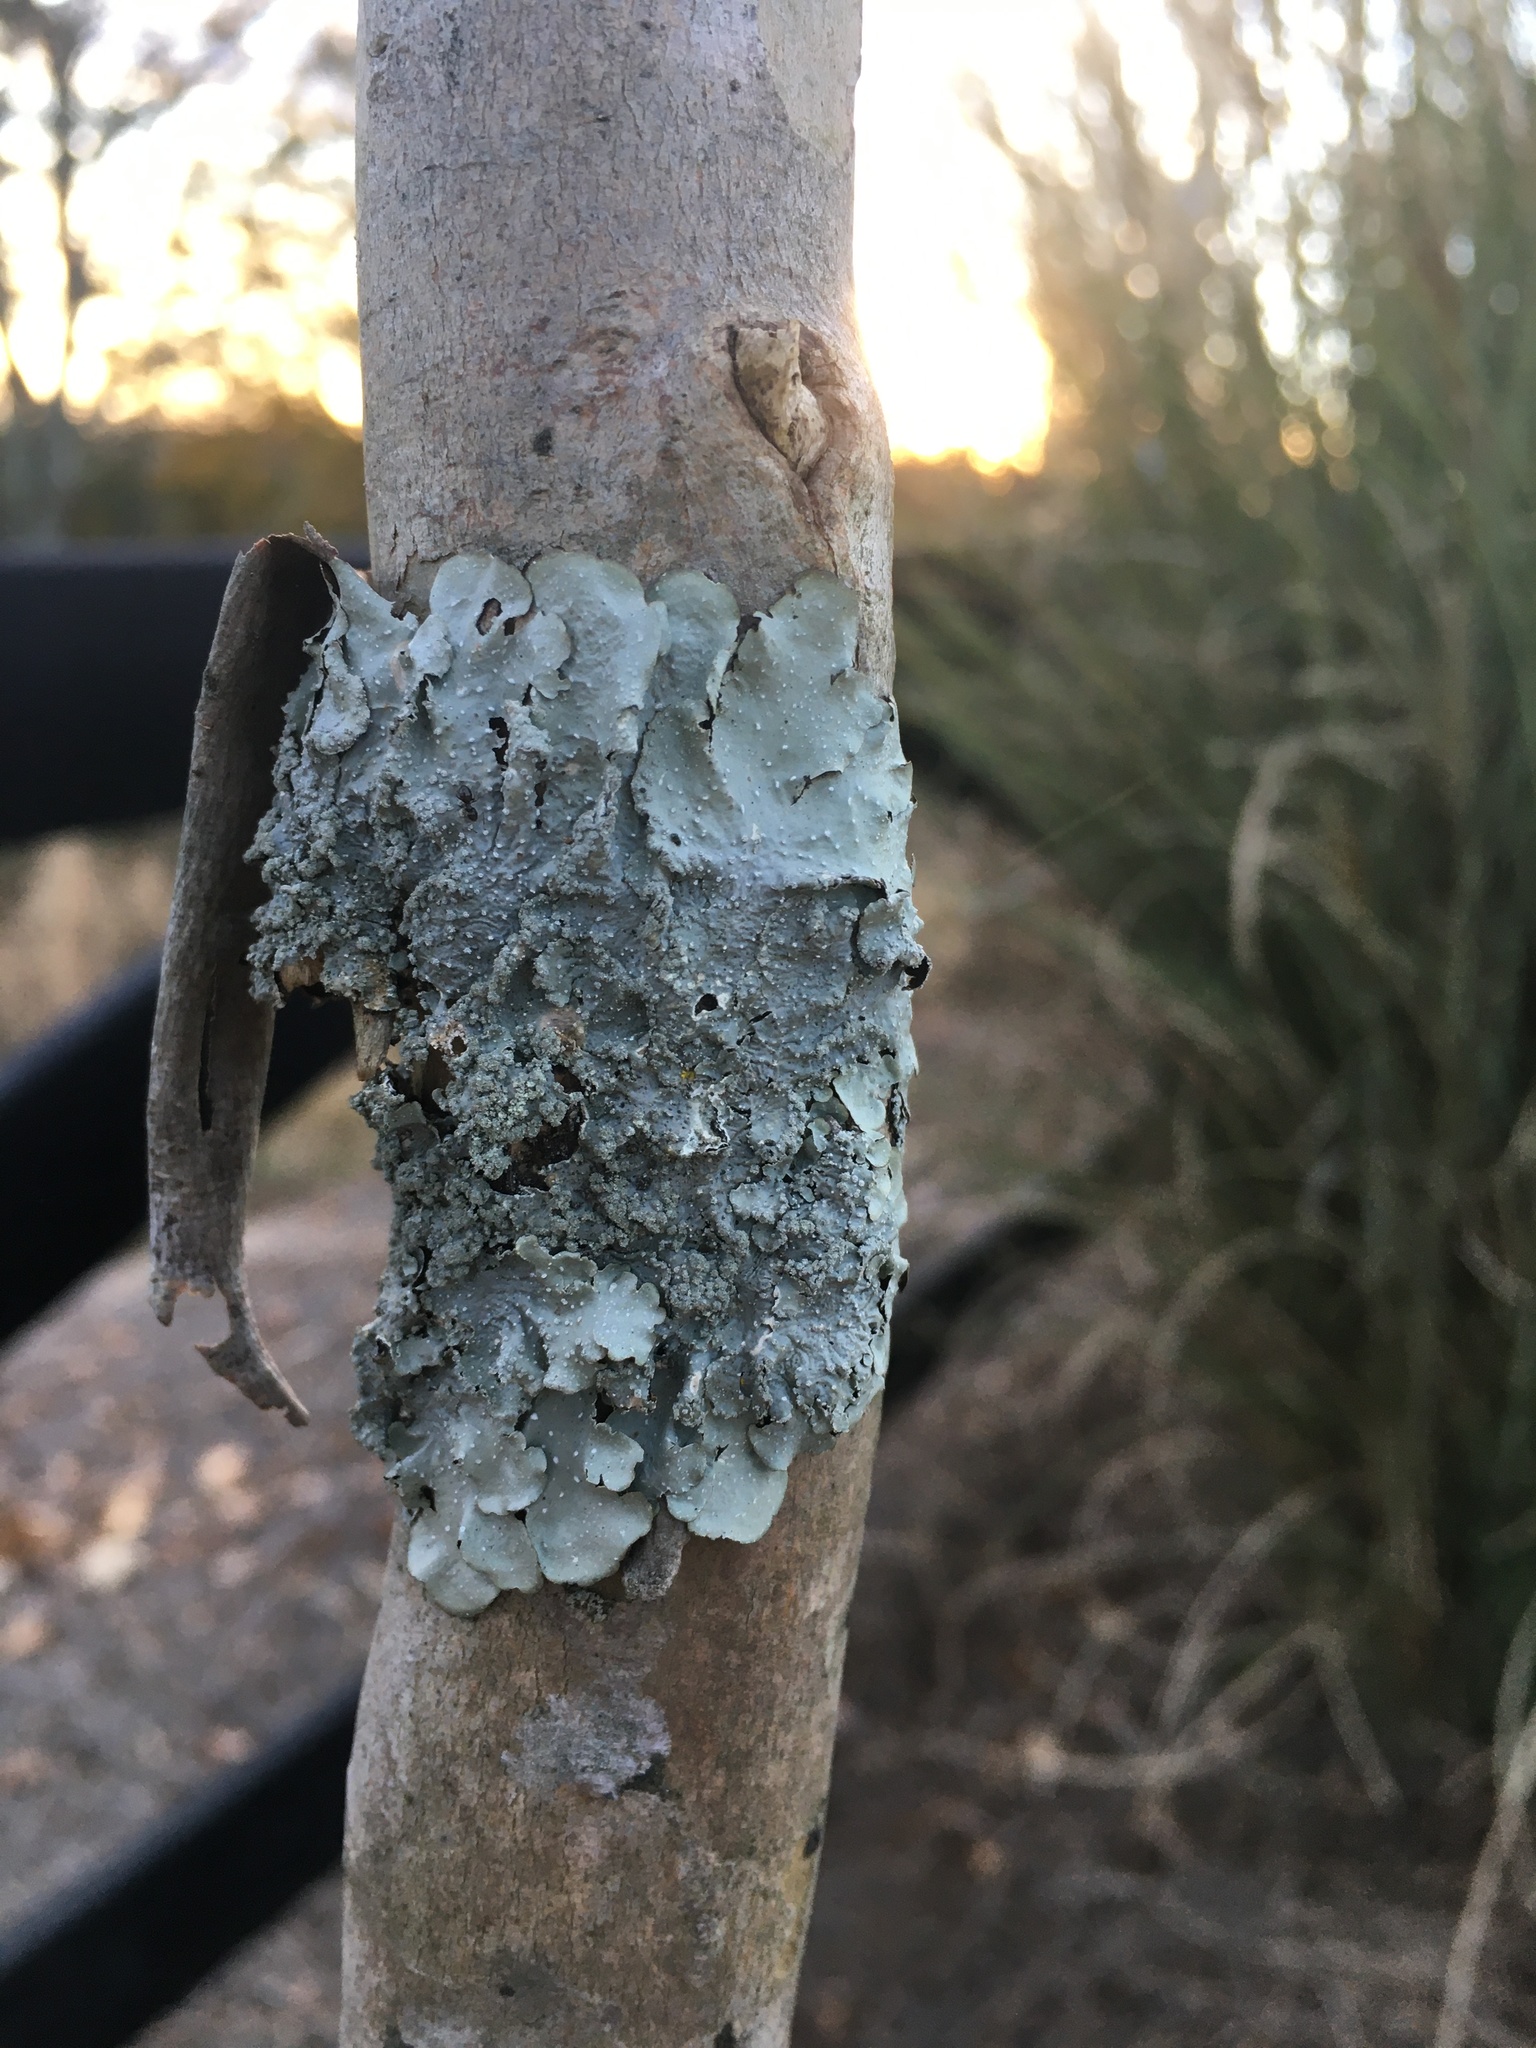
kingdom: Fungi
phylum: Ascomycota
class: Lecanoromycetes
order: Lecanorales
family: Parmeliaceae
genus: Punctelia
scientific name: Punctelia missouriensis
